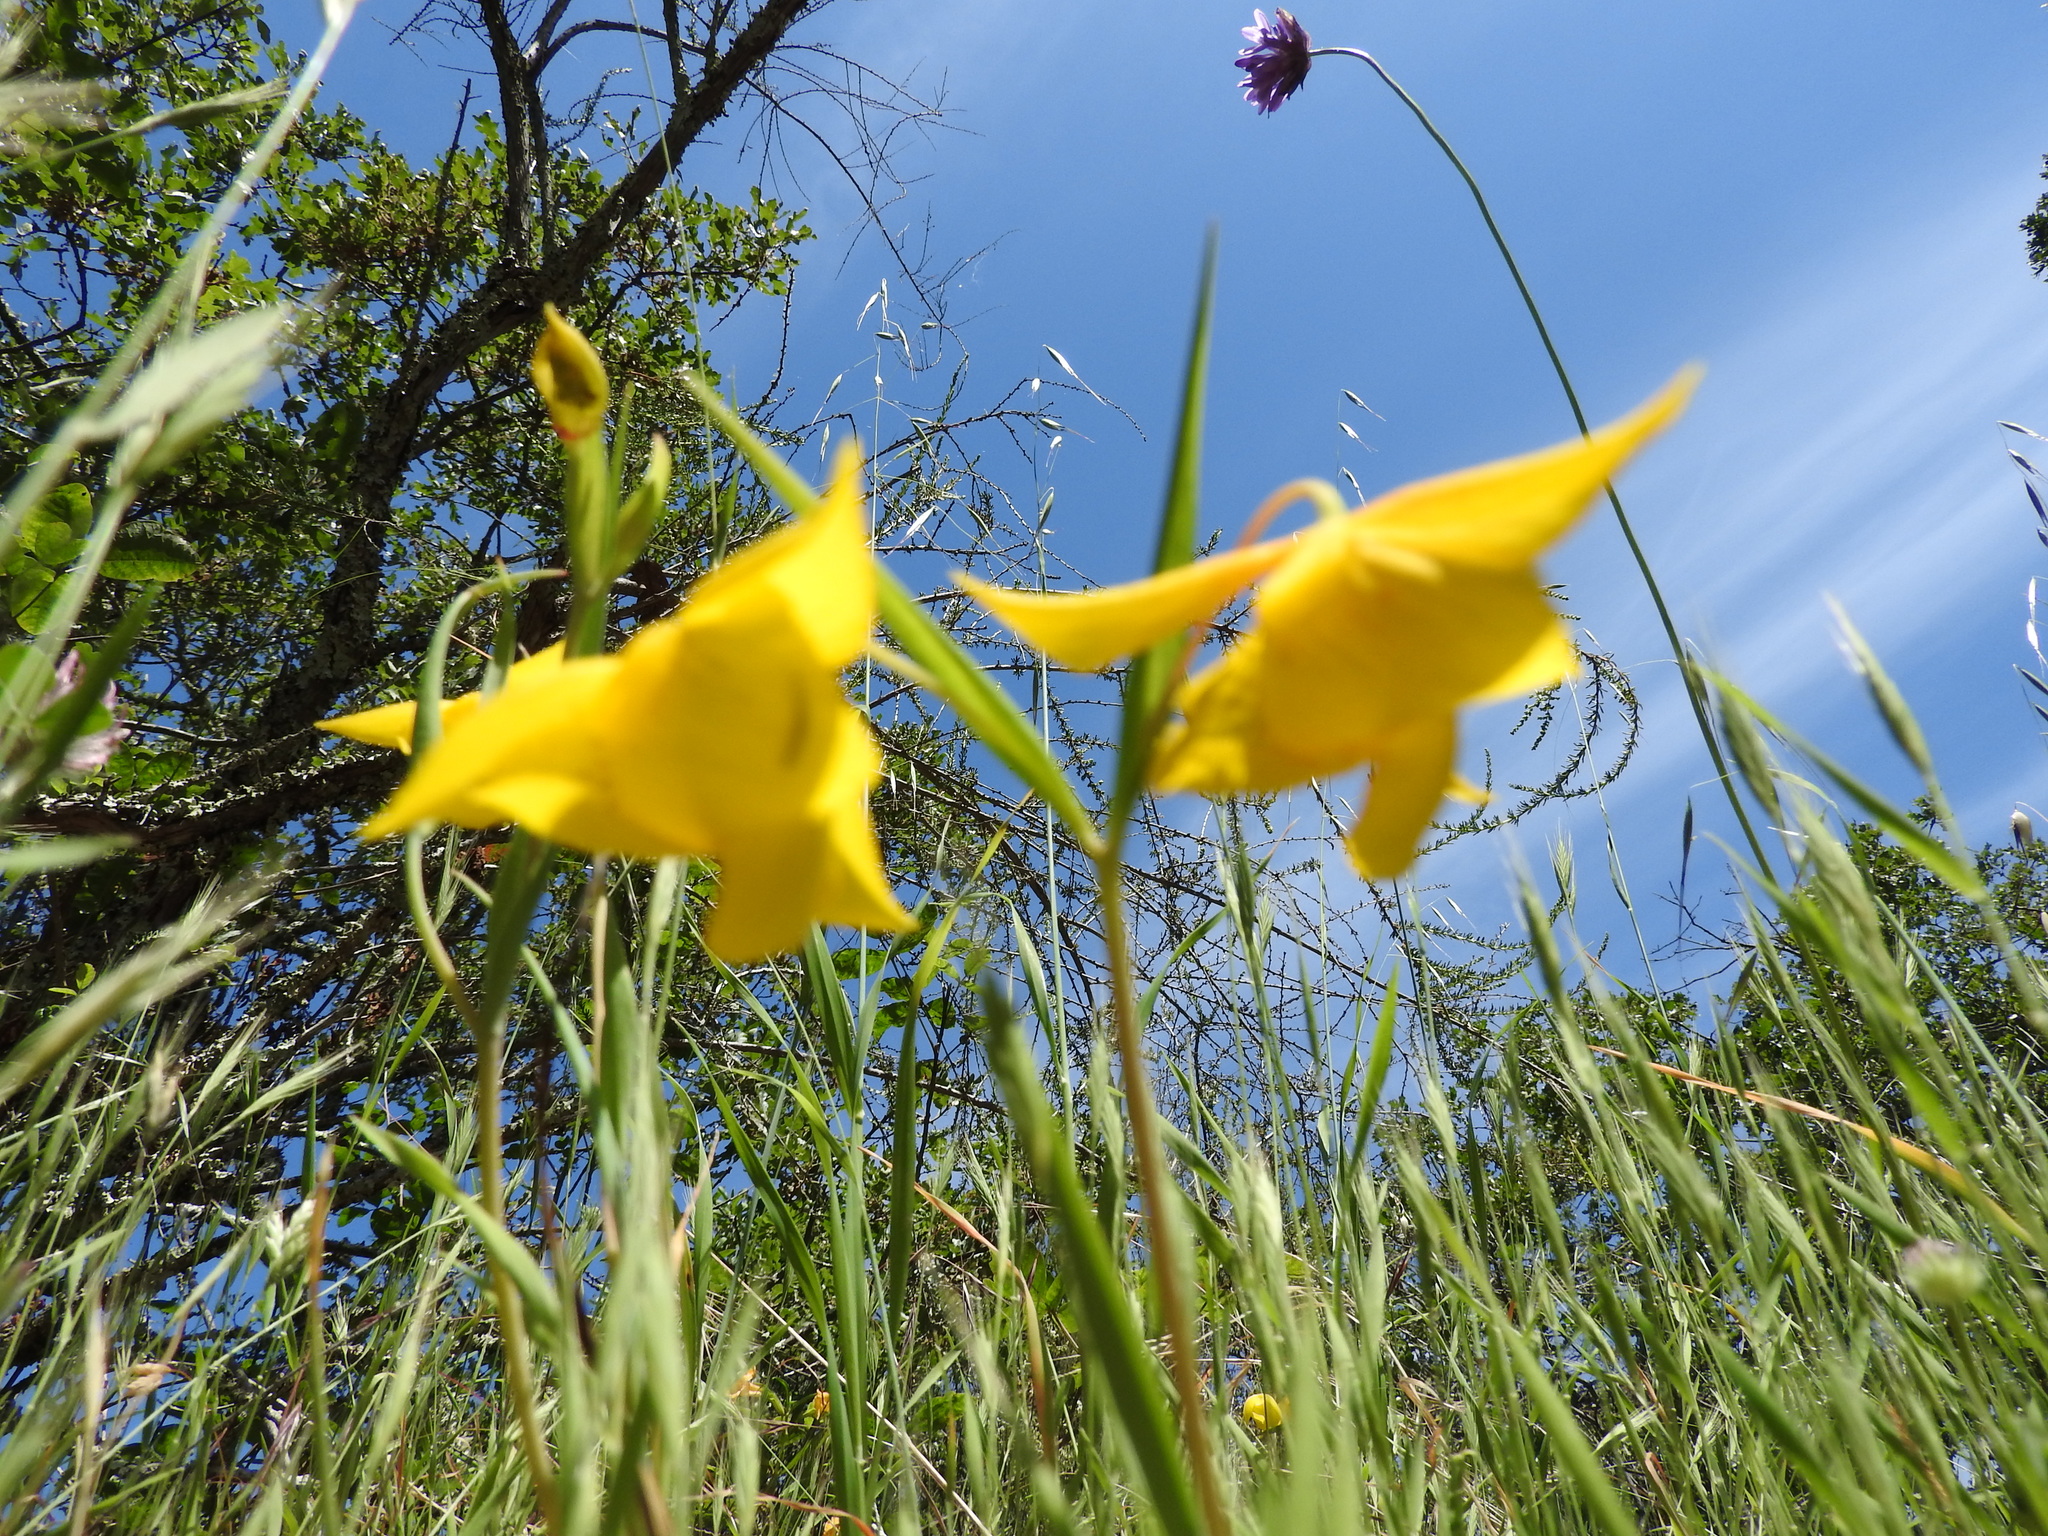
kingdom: Plantae
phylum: Tracheophyta
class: Liliopsida
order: Liliales
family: Liliaceae
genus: Calochortus
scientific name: Calochortus amabilis
